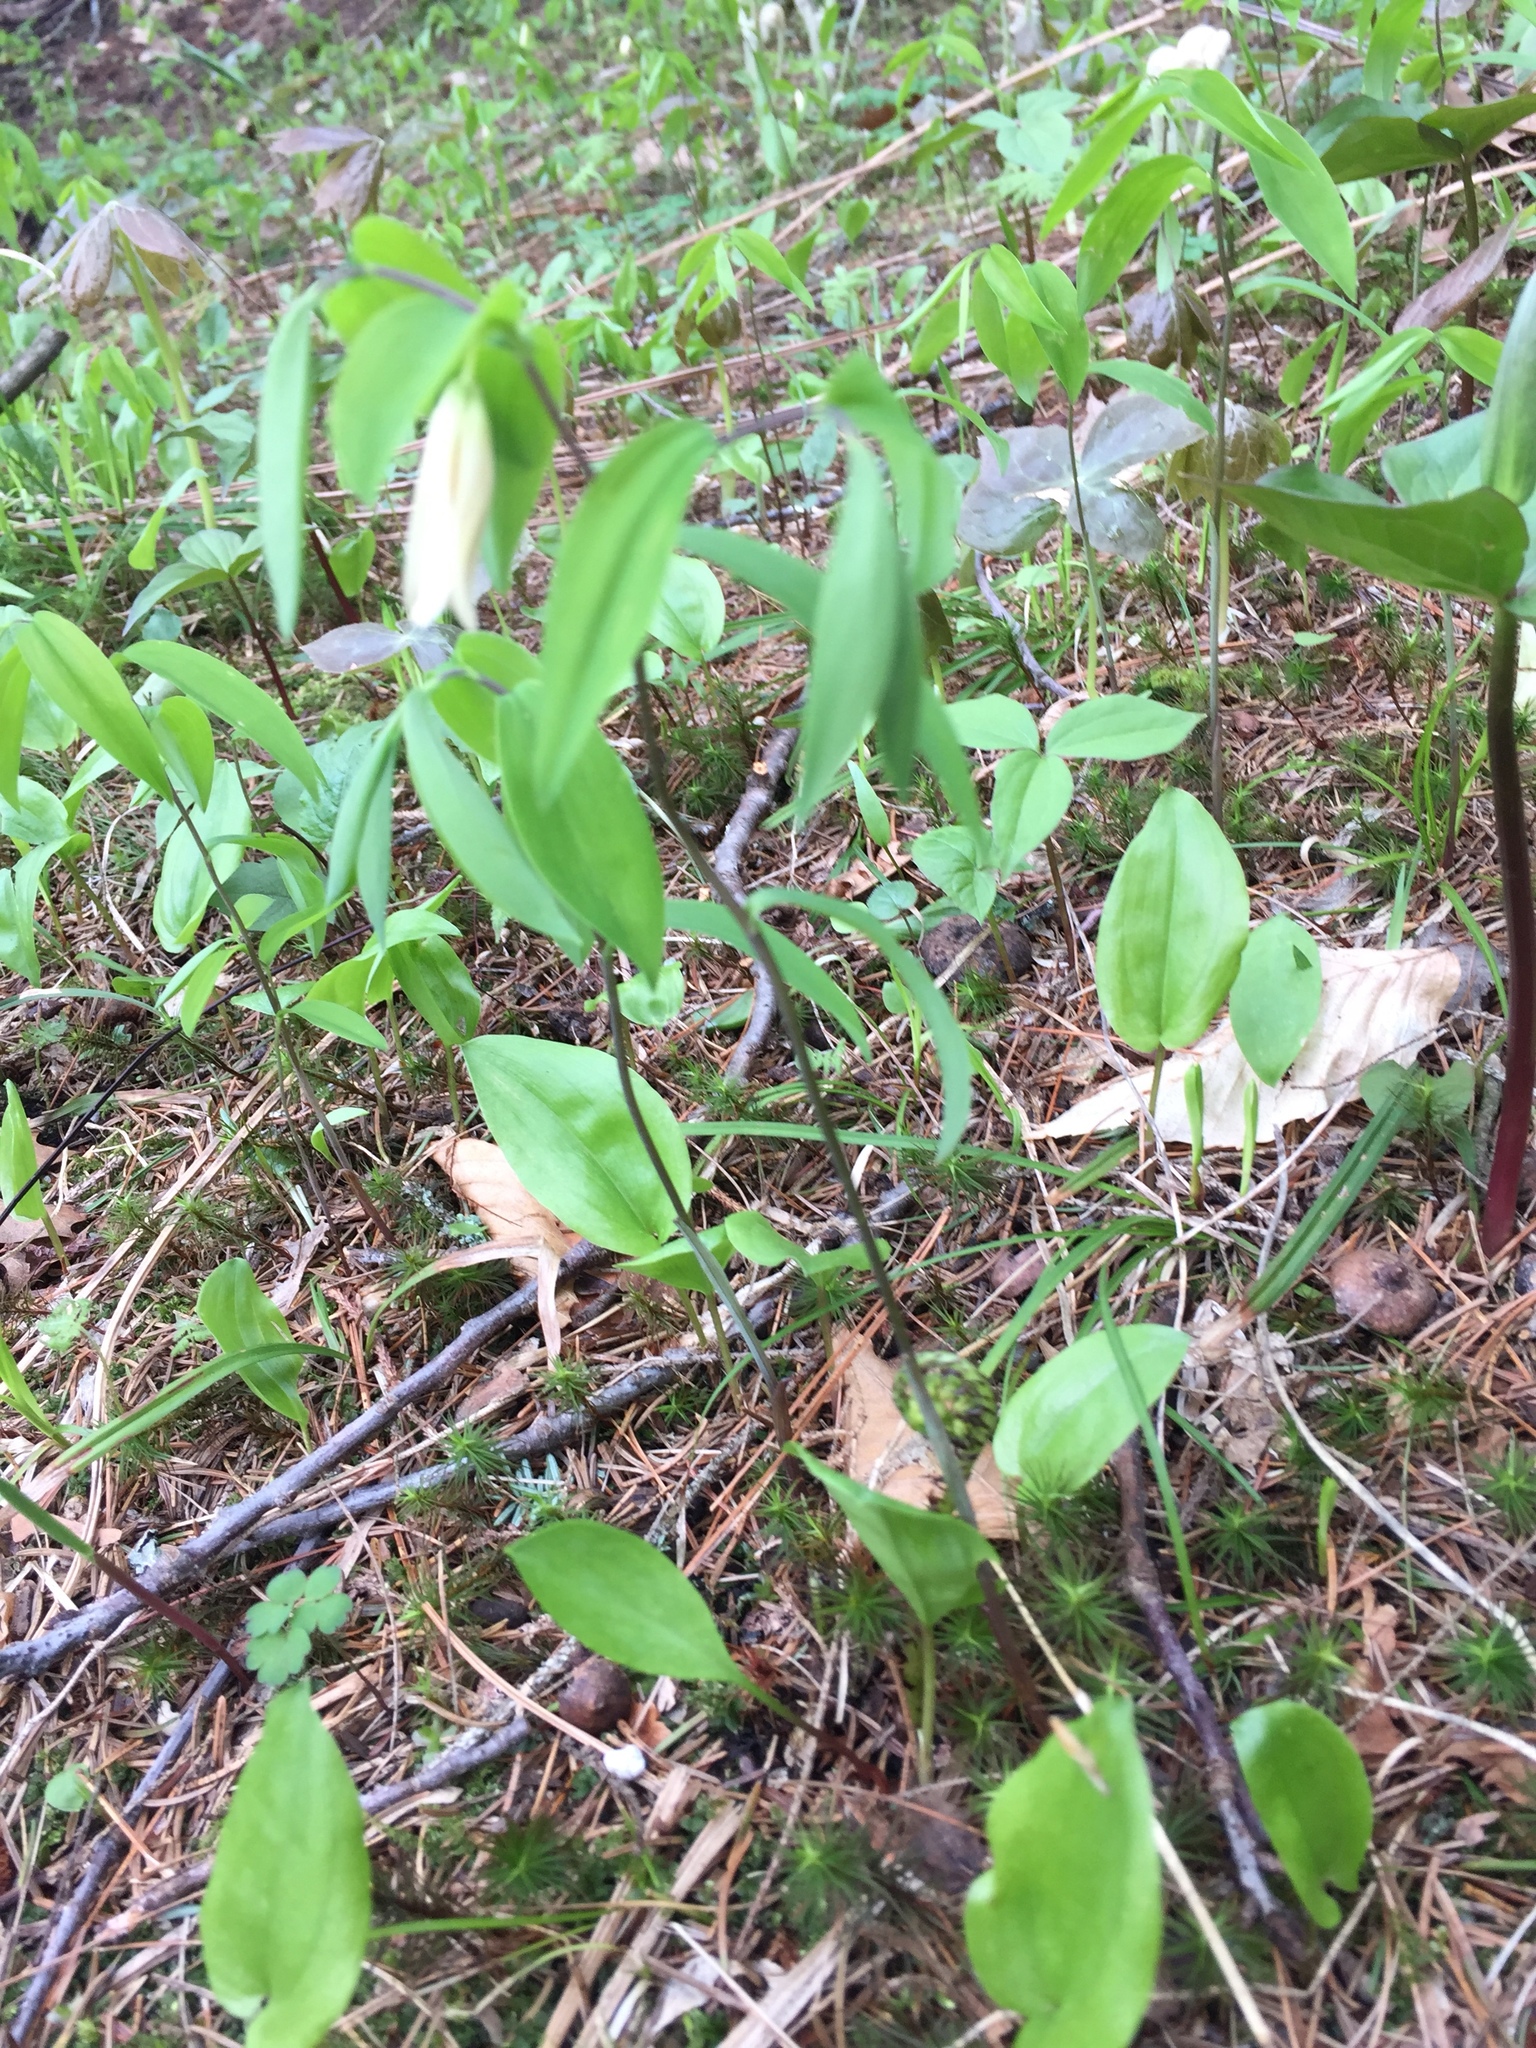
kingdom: Plantae
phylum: Tracheophyta
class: Liliopsida
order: Liliales
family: Colchicaceae
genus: Uvularia
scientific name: Uvularia sessilifolia
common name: Straw-lily
